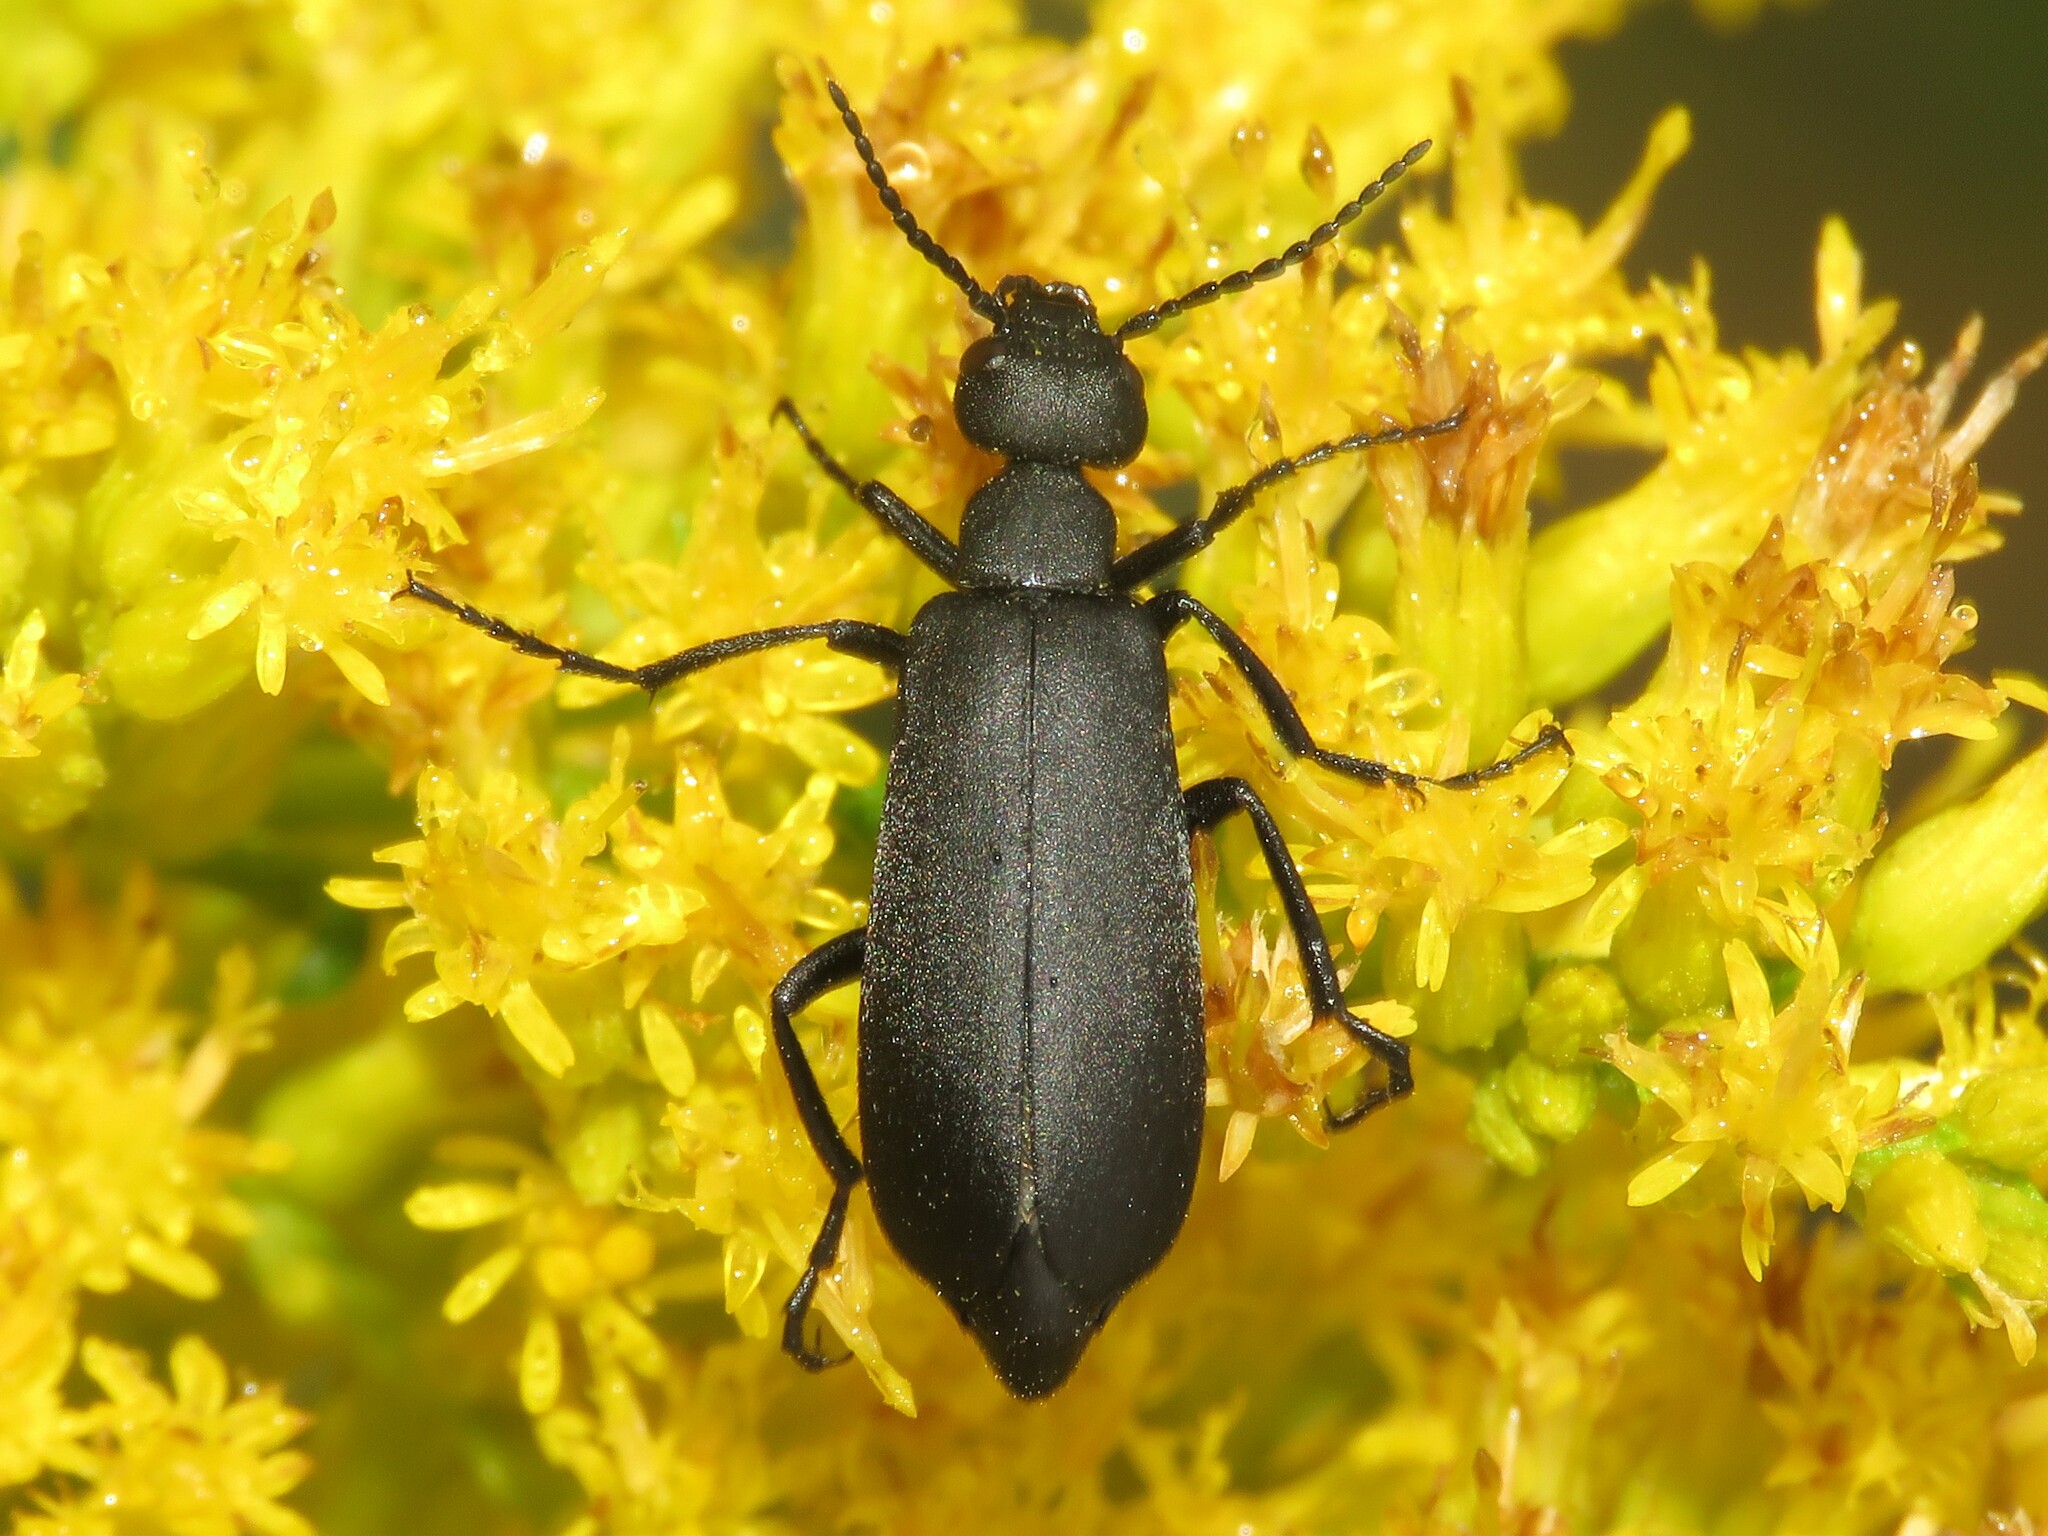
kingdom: Animalia
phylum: Arthropoda
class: Insecta
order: Coleoptera
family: Meloidae
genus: Epicauta
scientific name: Epicauta pensylvanica
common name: Black blister beetle
